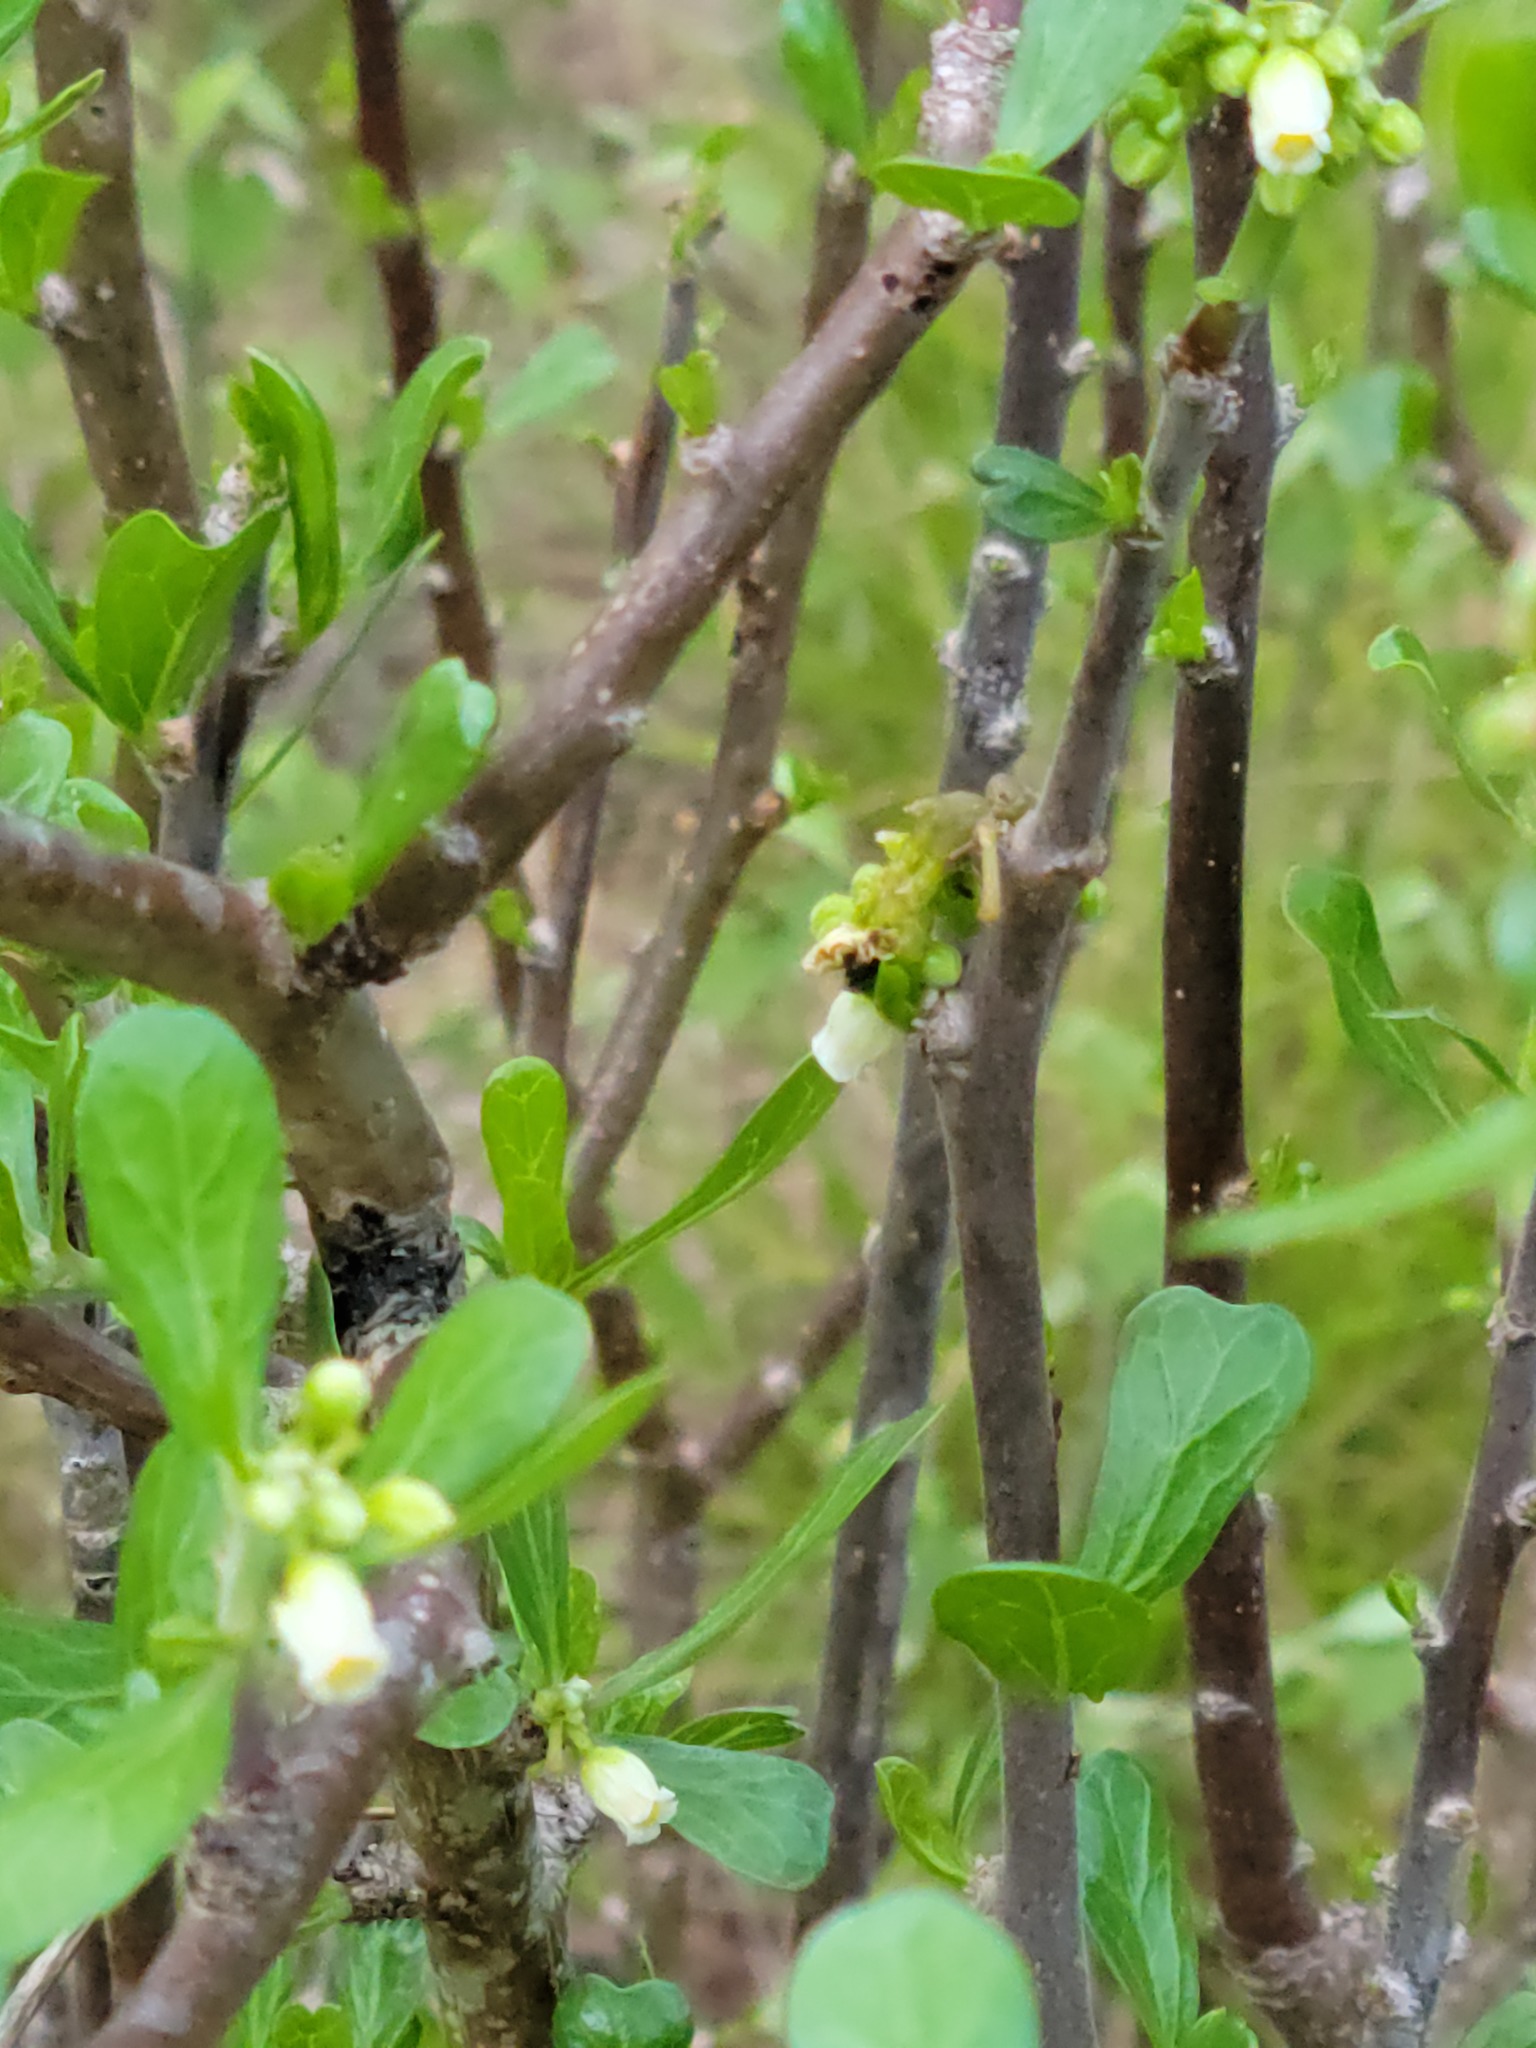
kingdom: Plantae
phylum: Tracheophyta
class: Magnoliopsida
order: Malpighiales
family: Euphorbiaceae
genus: Jatropha
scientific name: Jatropha dioica
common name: Leatherstem
